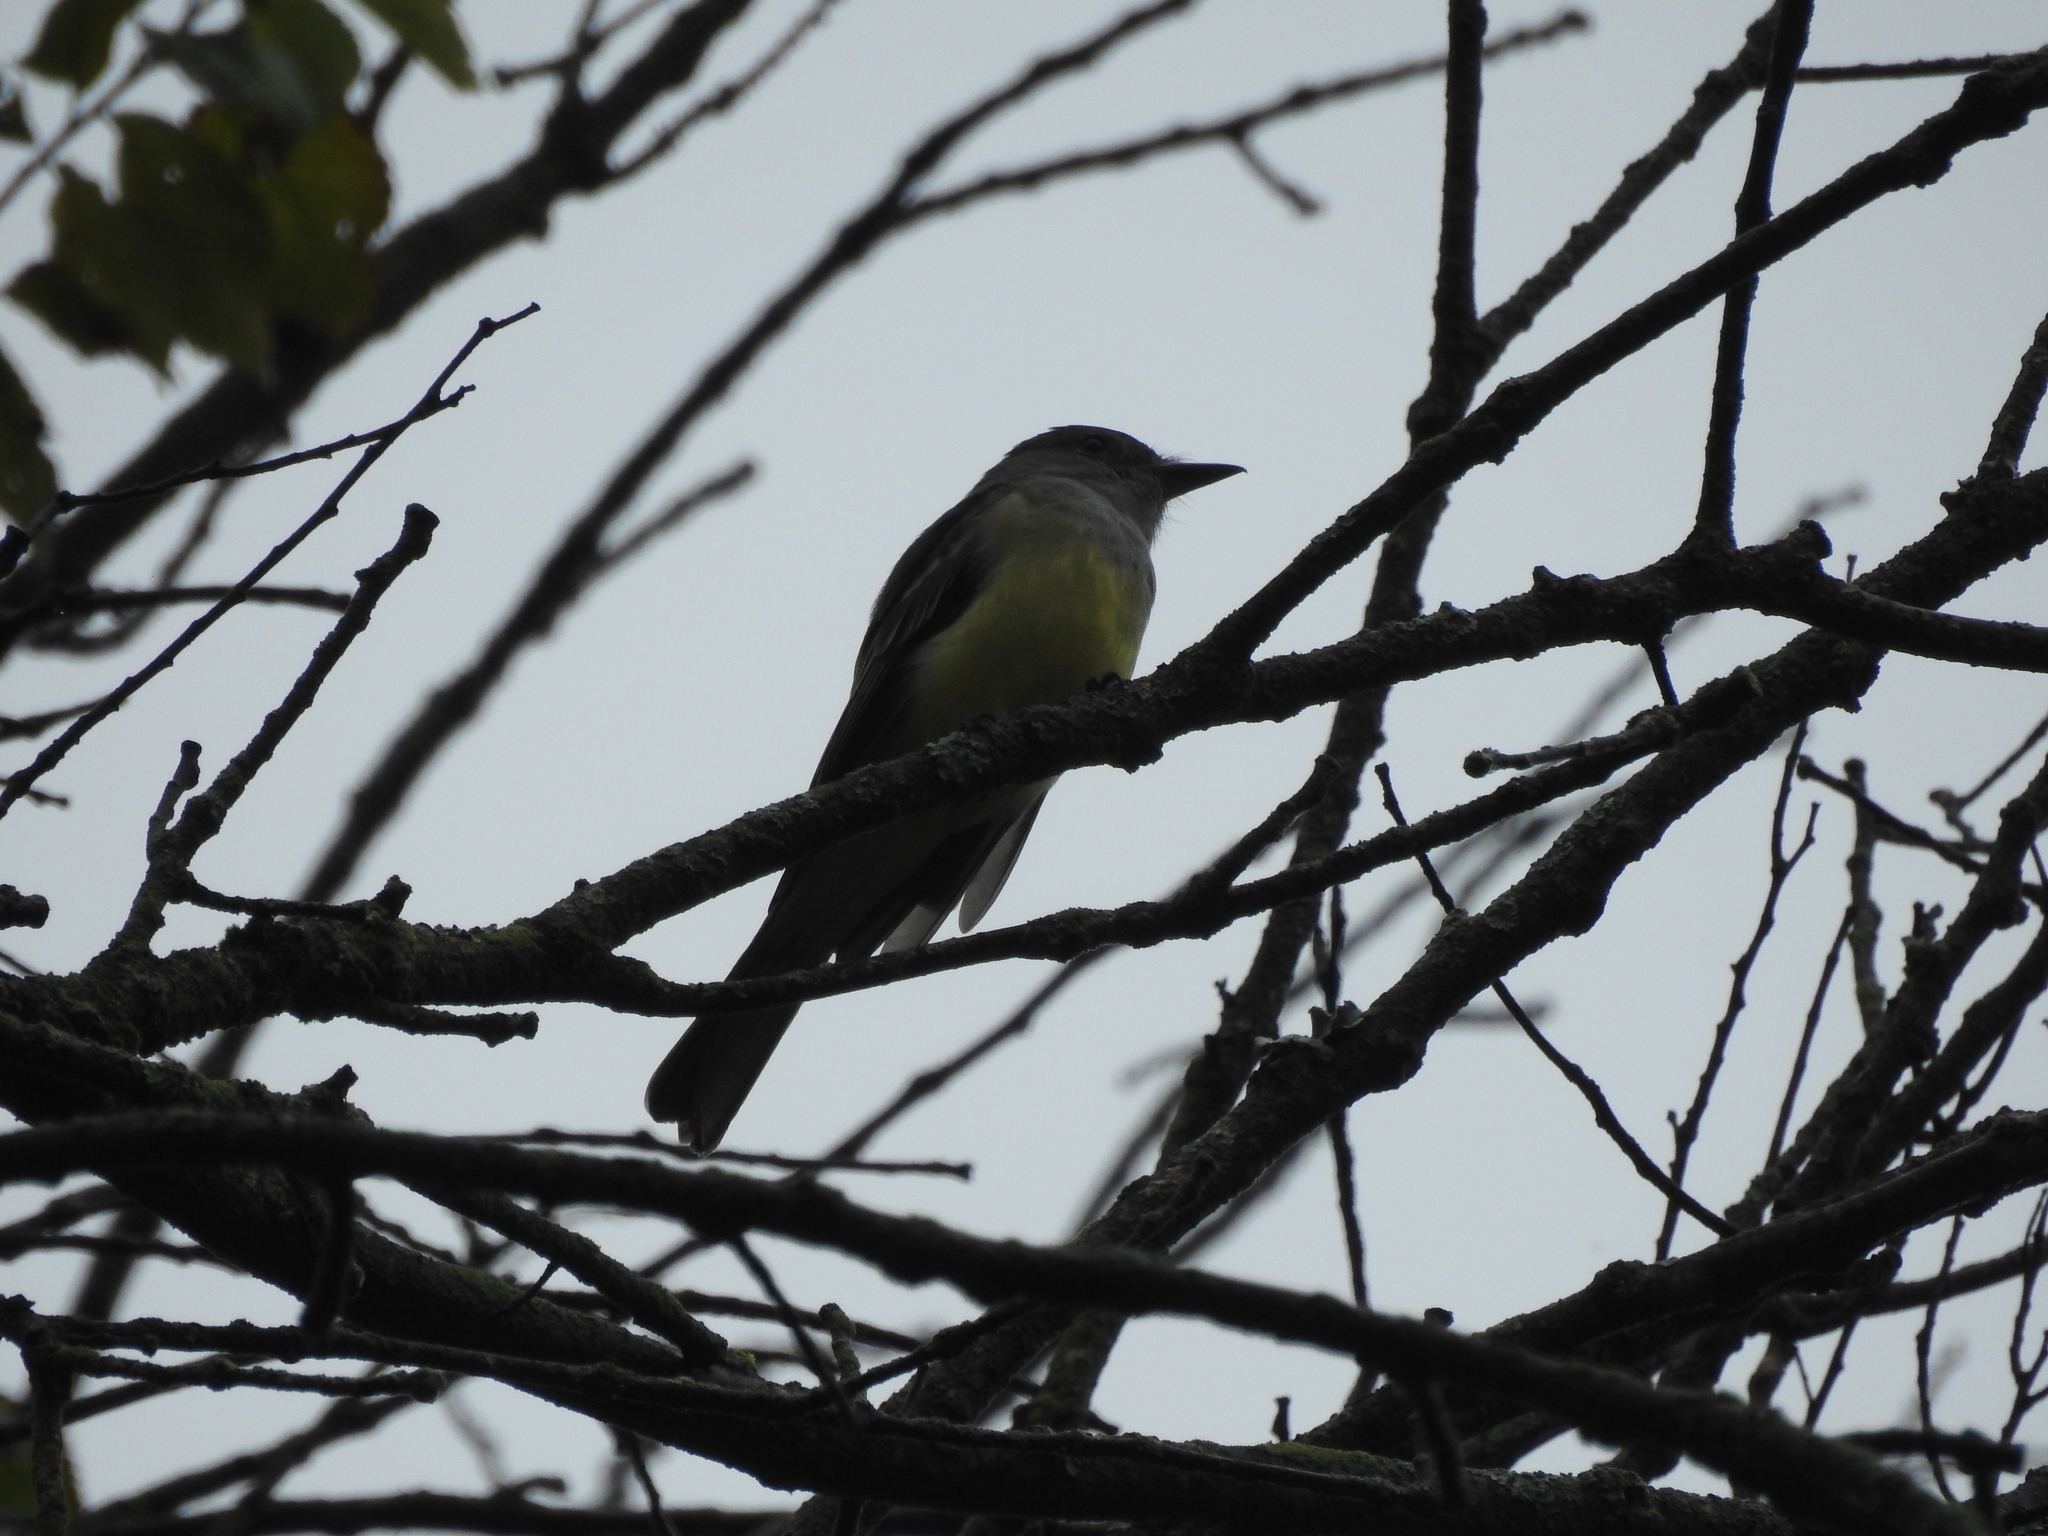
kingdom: Animalia
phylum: Chordata
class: Aves
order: Passeriformes
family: Tyrannidae
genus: Myiarchus
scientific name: Myiarchus crinitus
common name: Great crested flycatcher
